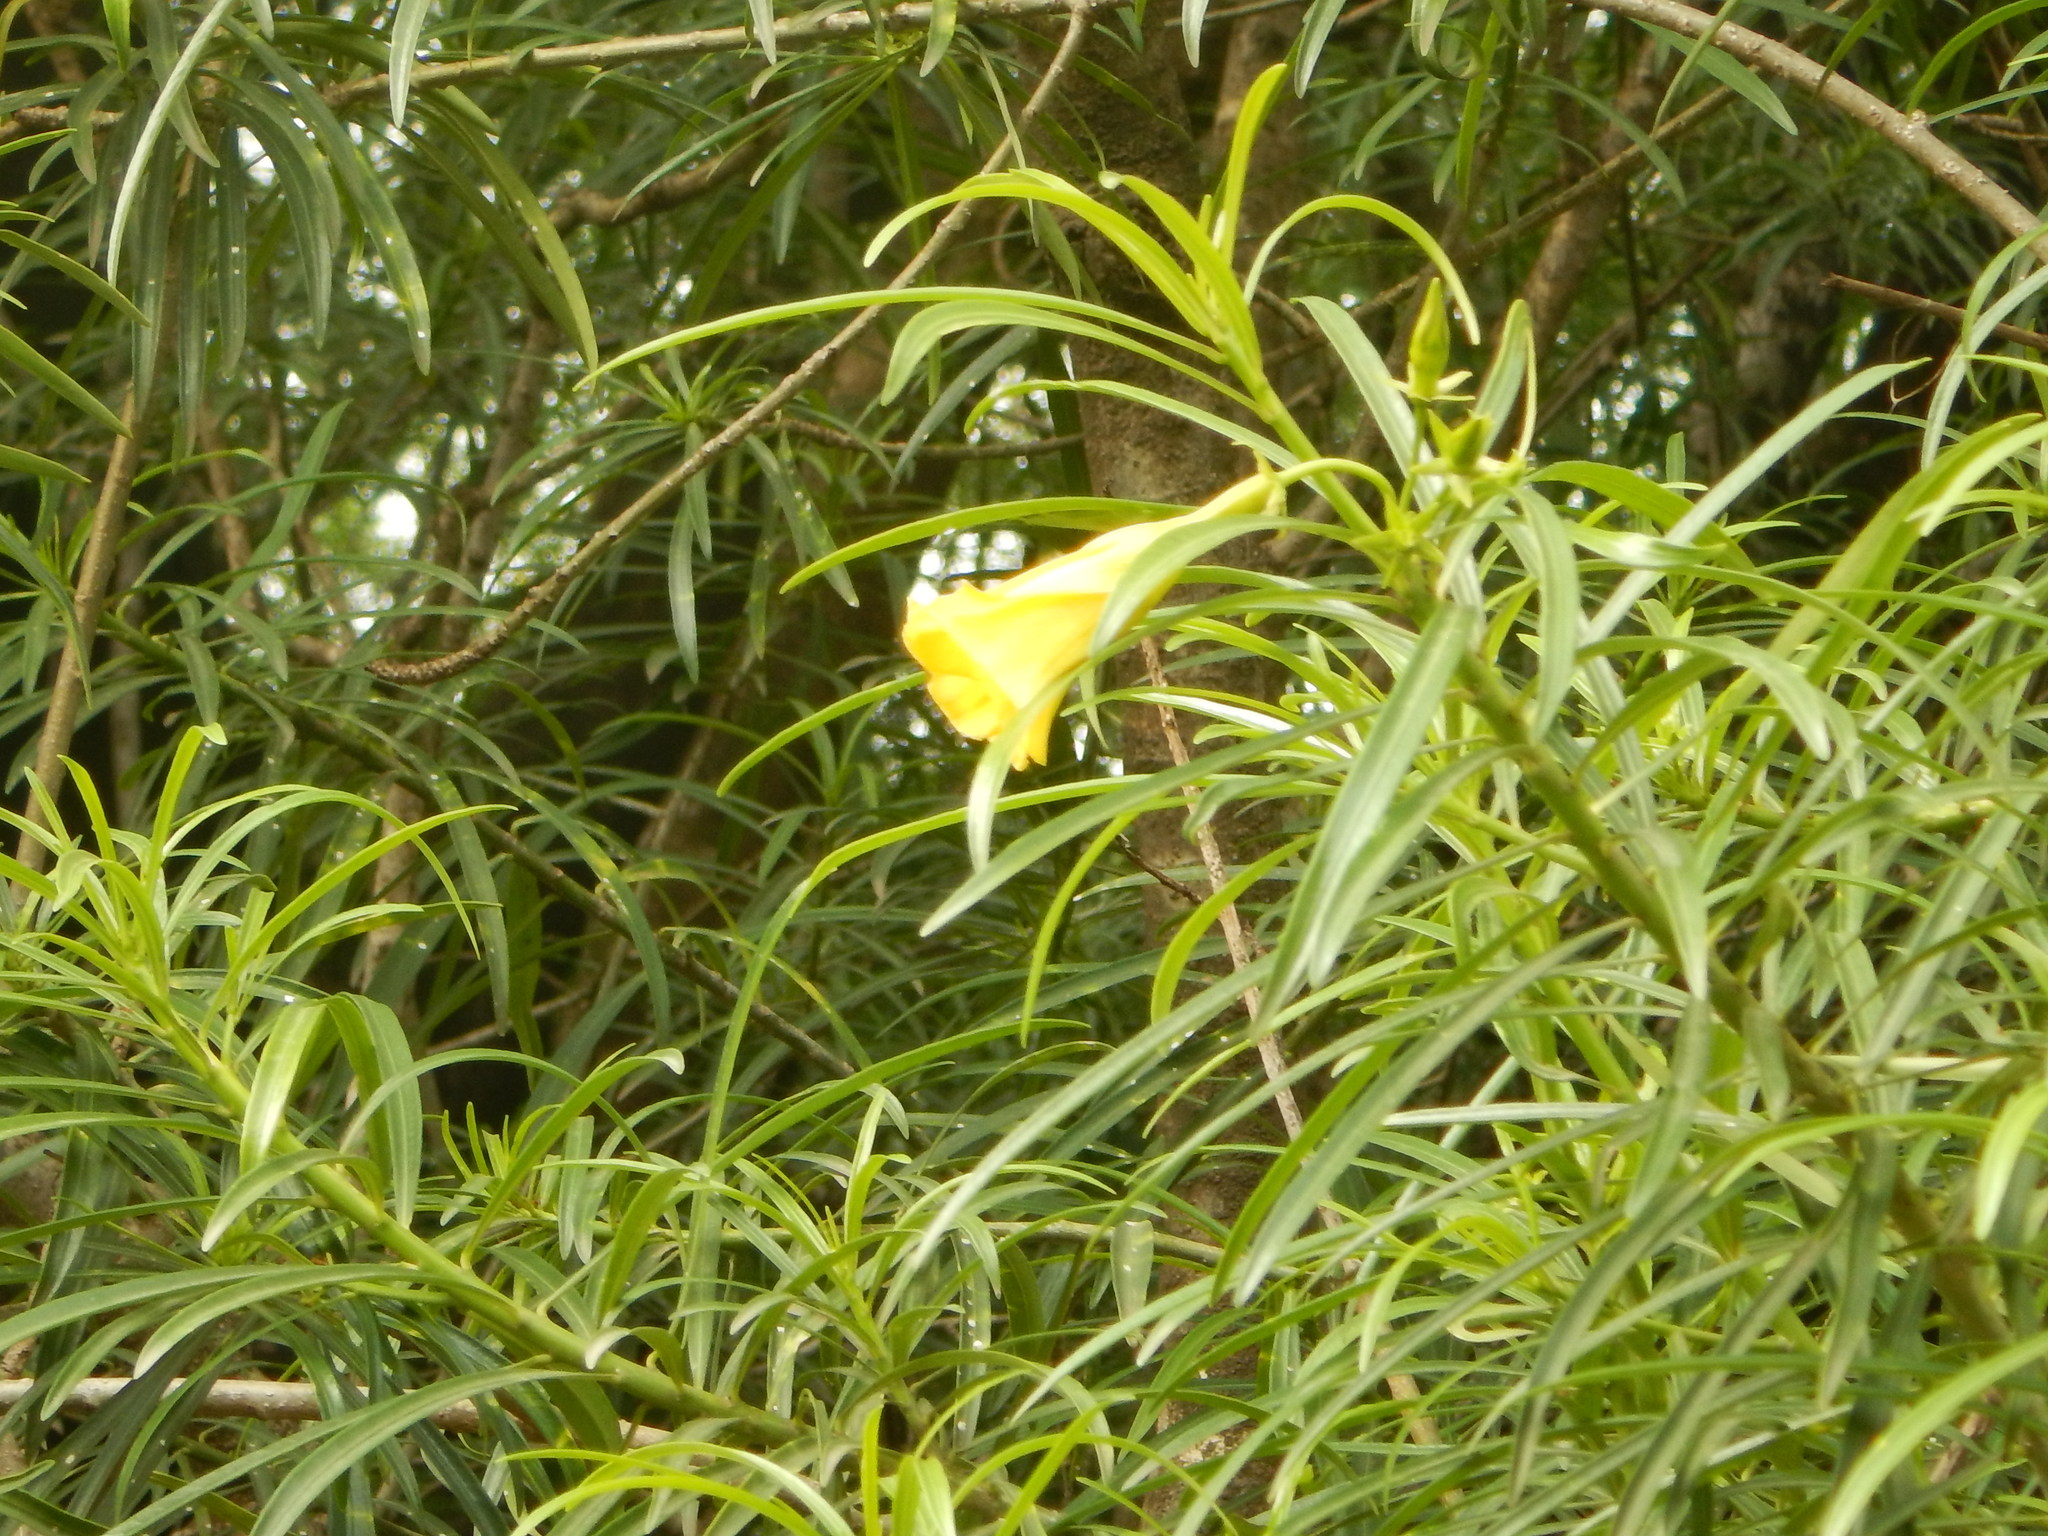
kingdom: Plantae
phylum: Tracheophyta
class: Magnoliopsida
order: Gentianales
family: Apocynaceae
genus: Cascabela
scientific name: Cascabela thevetia
